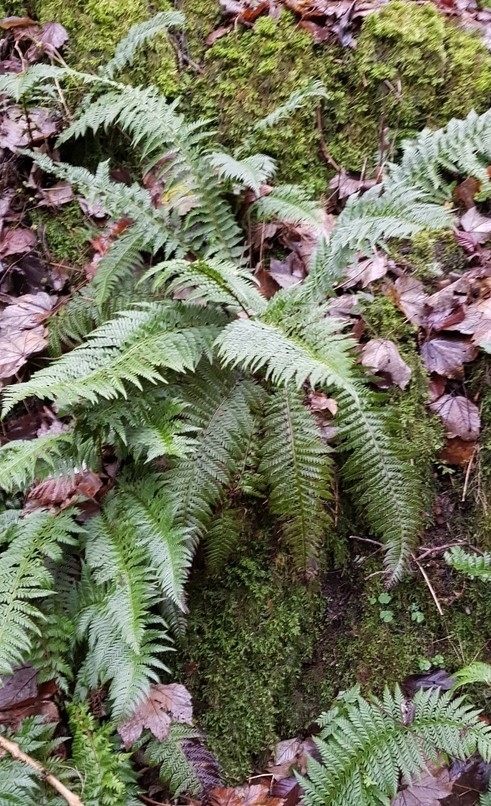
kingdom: Plantae
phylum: Tracheophyta
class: Polypodiopsida
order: Polypodiales
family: Dryopteridaceae
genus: Polystichum
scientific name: Polystichum aculeatum
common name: Hard shield-fern
